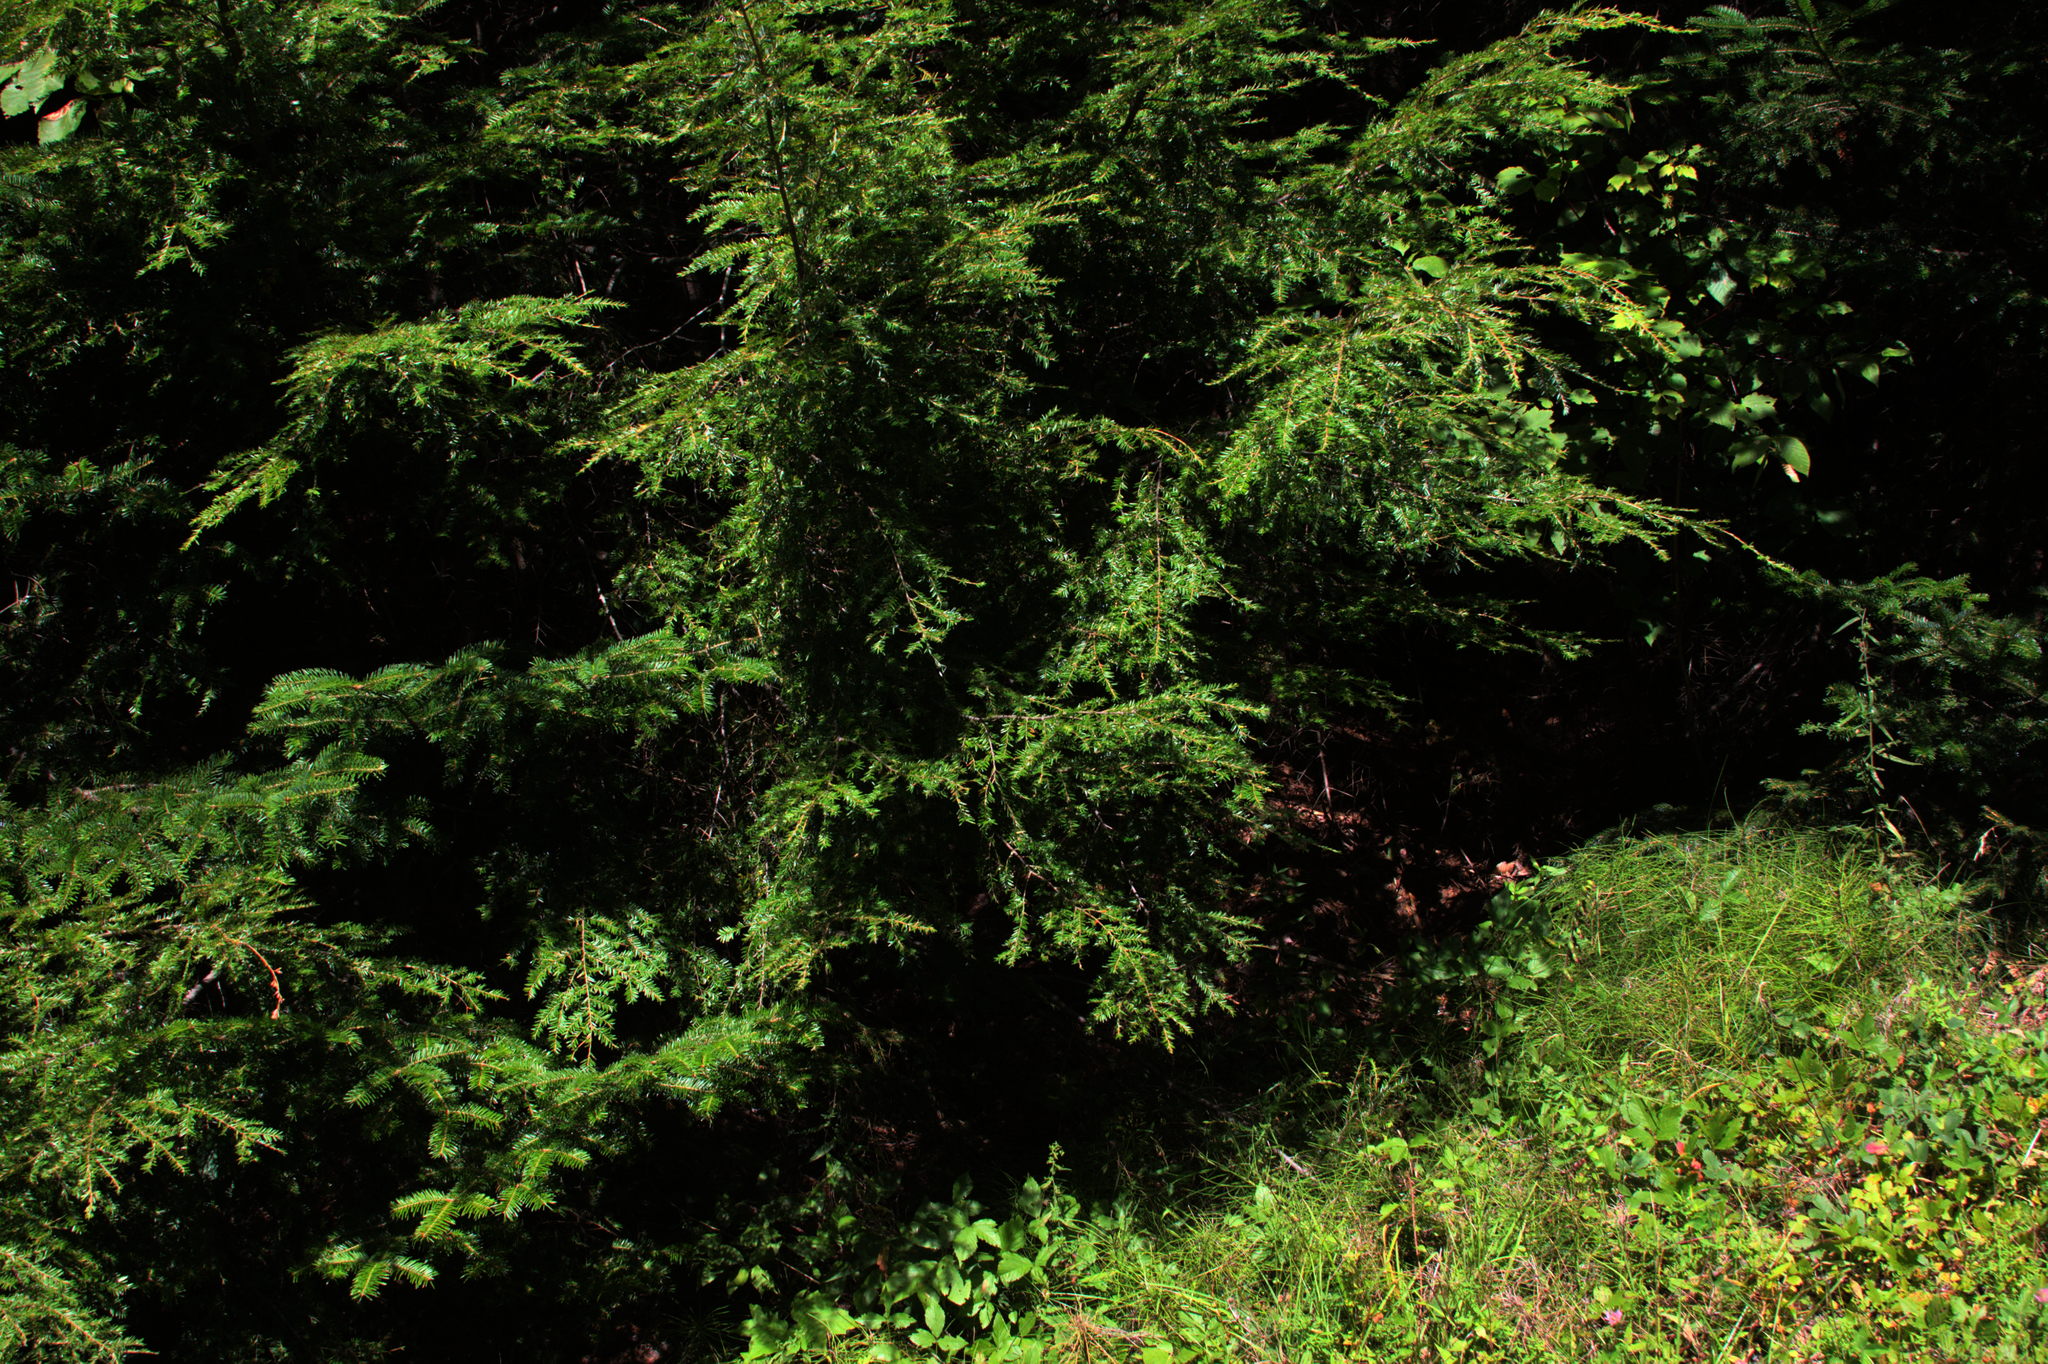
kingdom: Plantae
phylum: Tracheophyta
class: Pinopsida
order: Pinales
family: Pinaceae
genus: Tsuga
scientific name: Tsuga canadensis
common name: Eastern hemlock
